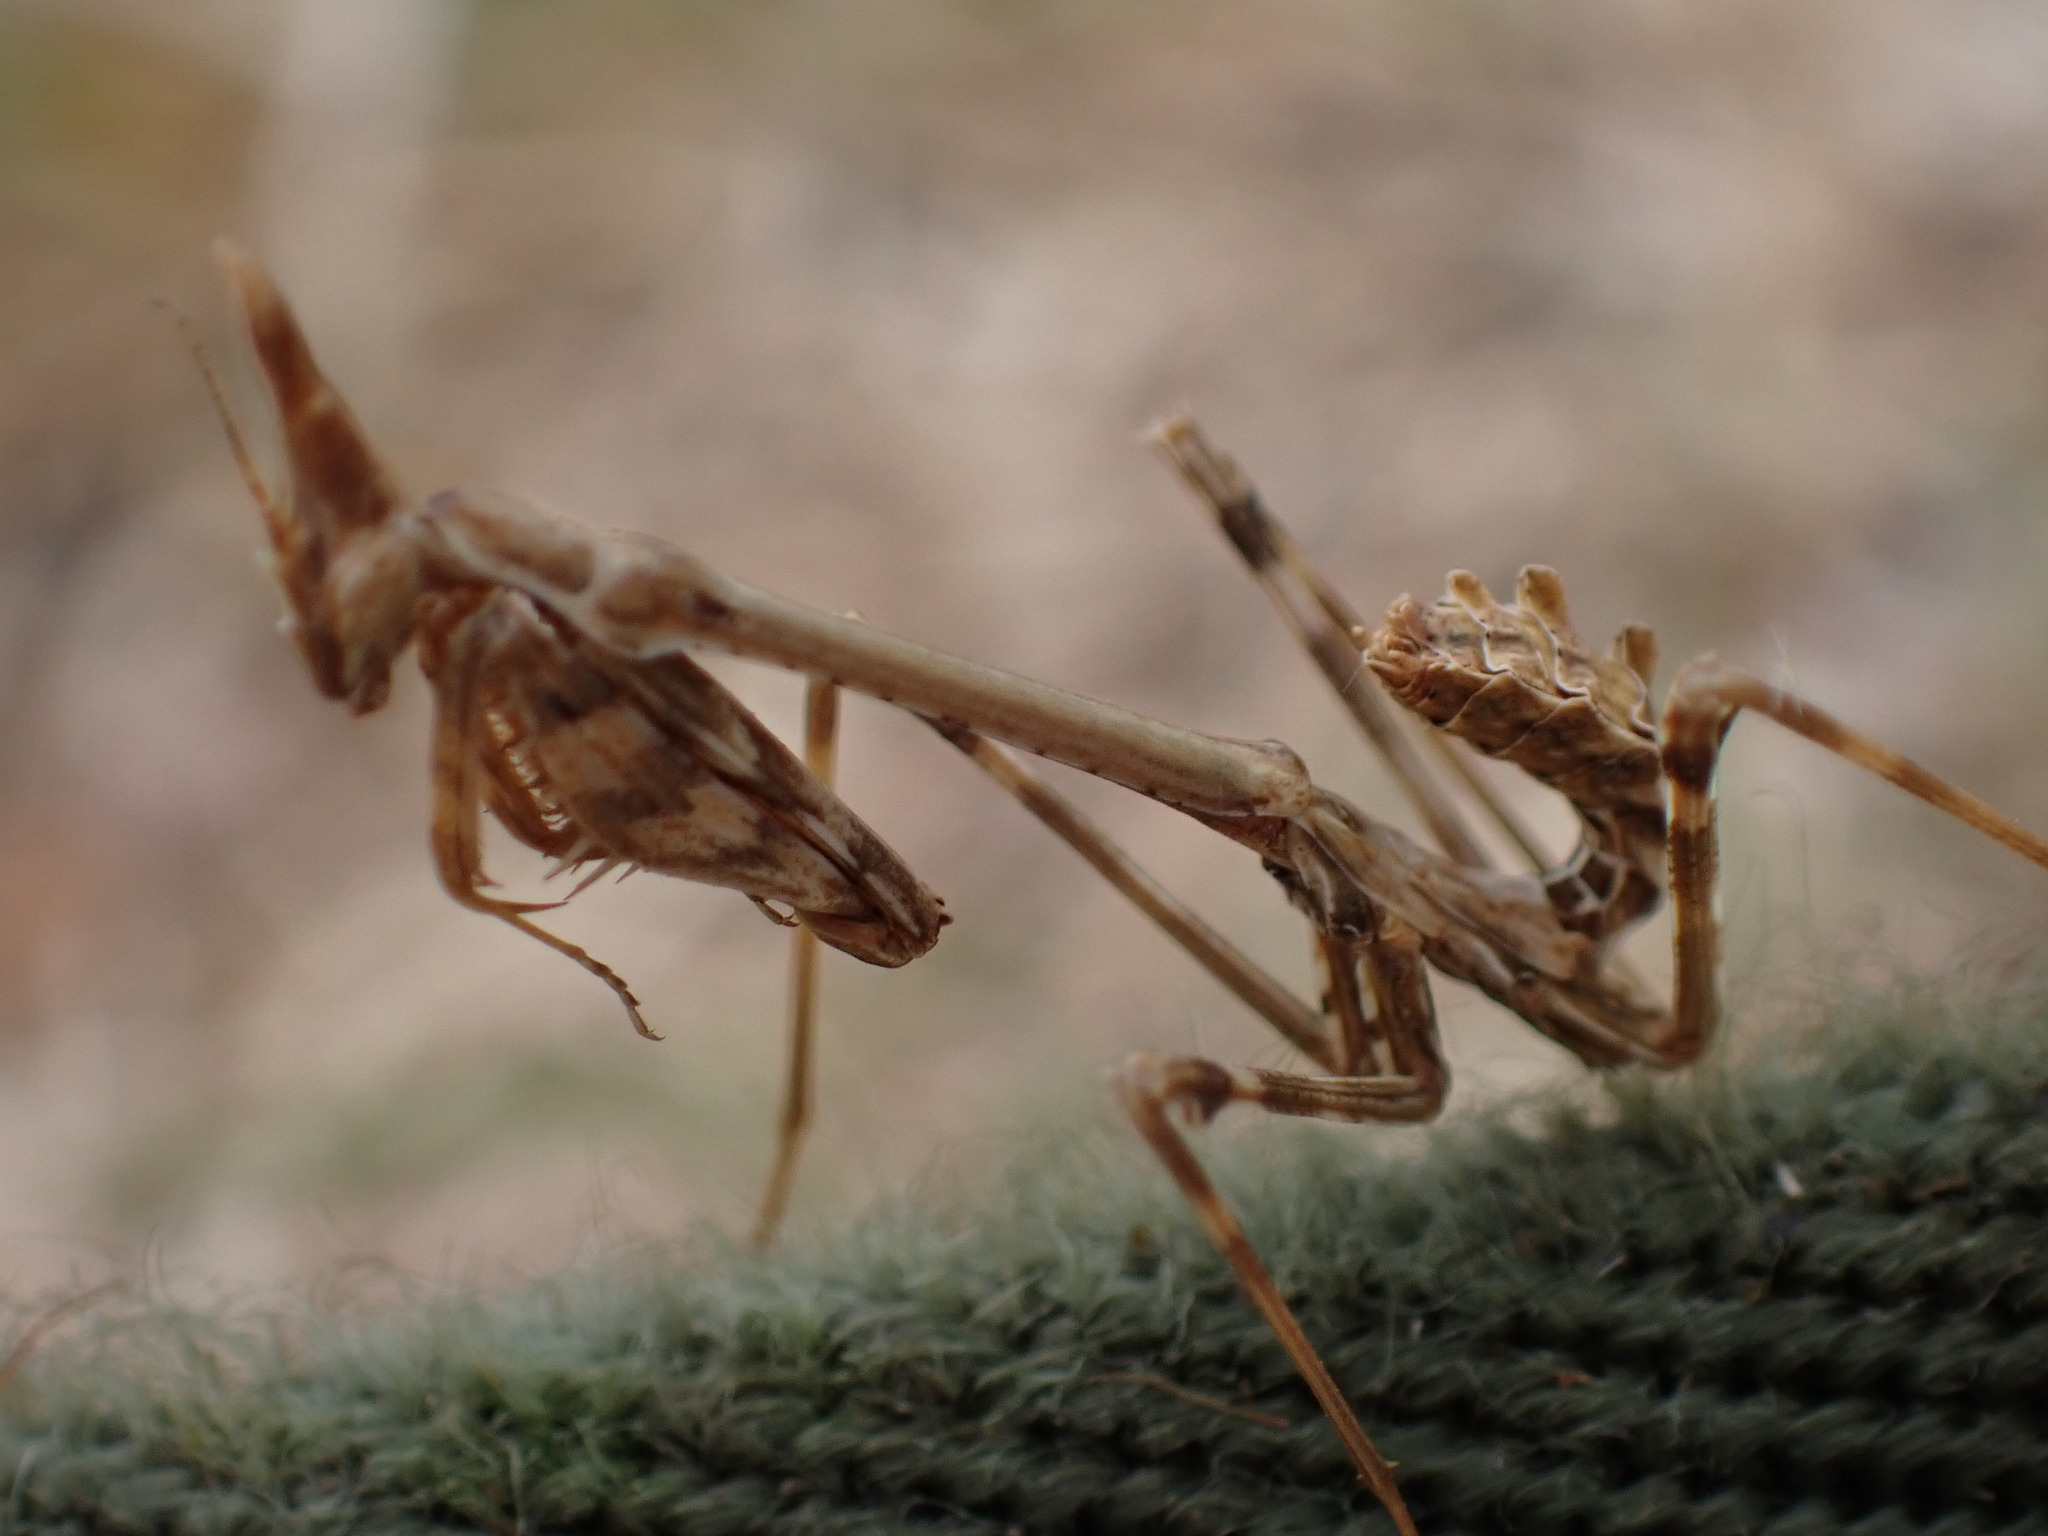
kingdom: Animalia
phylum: Arthropoda
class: Insecta
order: Mantodea
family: Empusidae
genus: Empusa
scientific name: Empusa pennata
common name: Conehead mantis
